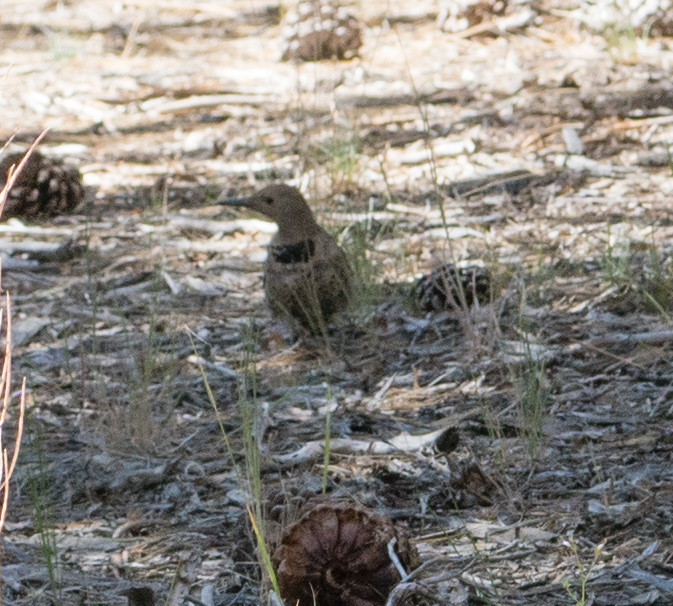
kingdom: Animalia
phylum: Chordata
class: Aves
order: Piciformes
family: Picidae
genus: Colaptes
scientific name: Colaptes auratus
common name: Northern flicker
